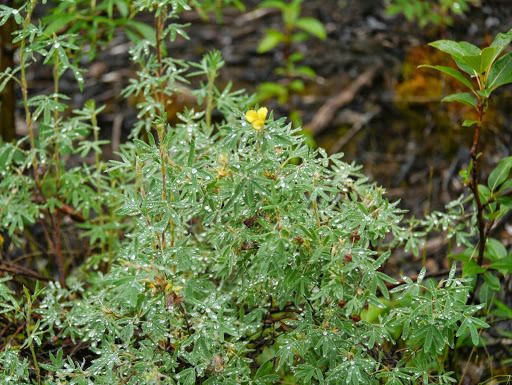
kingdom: Plantae
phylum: Tracheophyta
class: Magnoliopsida
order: Rosales
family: Rosaceae
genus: Dasiphora
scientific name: Dasiphora fruticosa
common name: Shrubby cinquefoil
